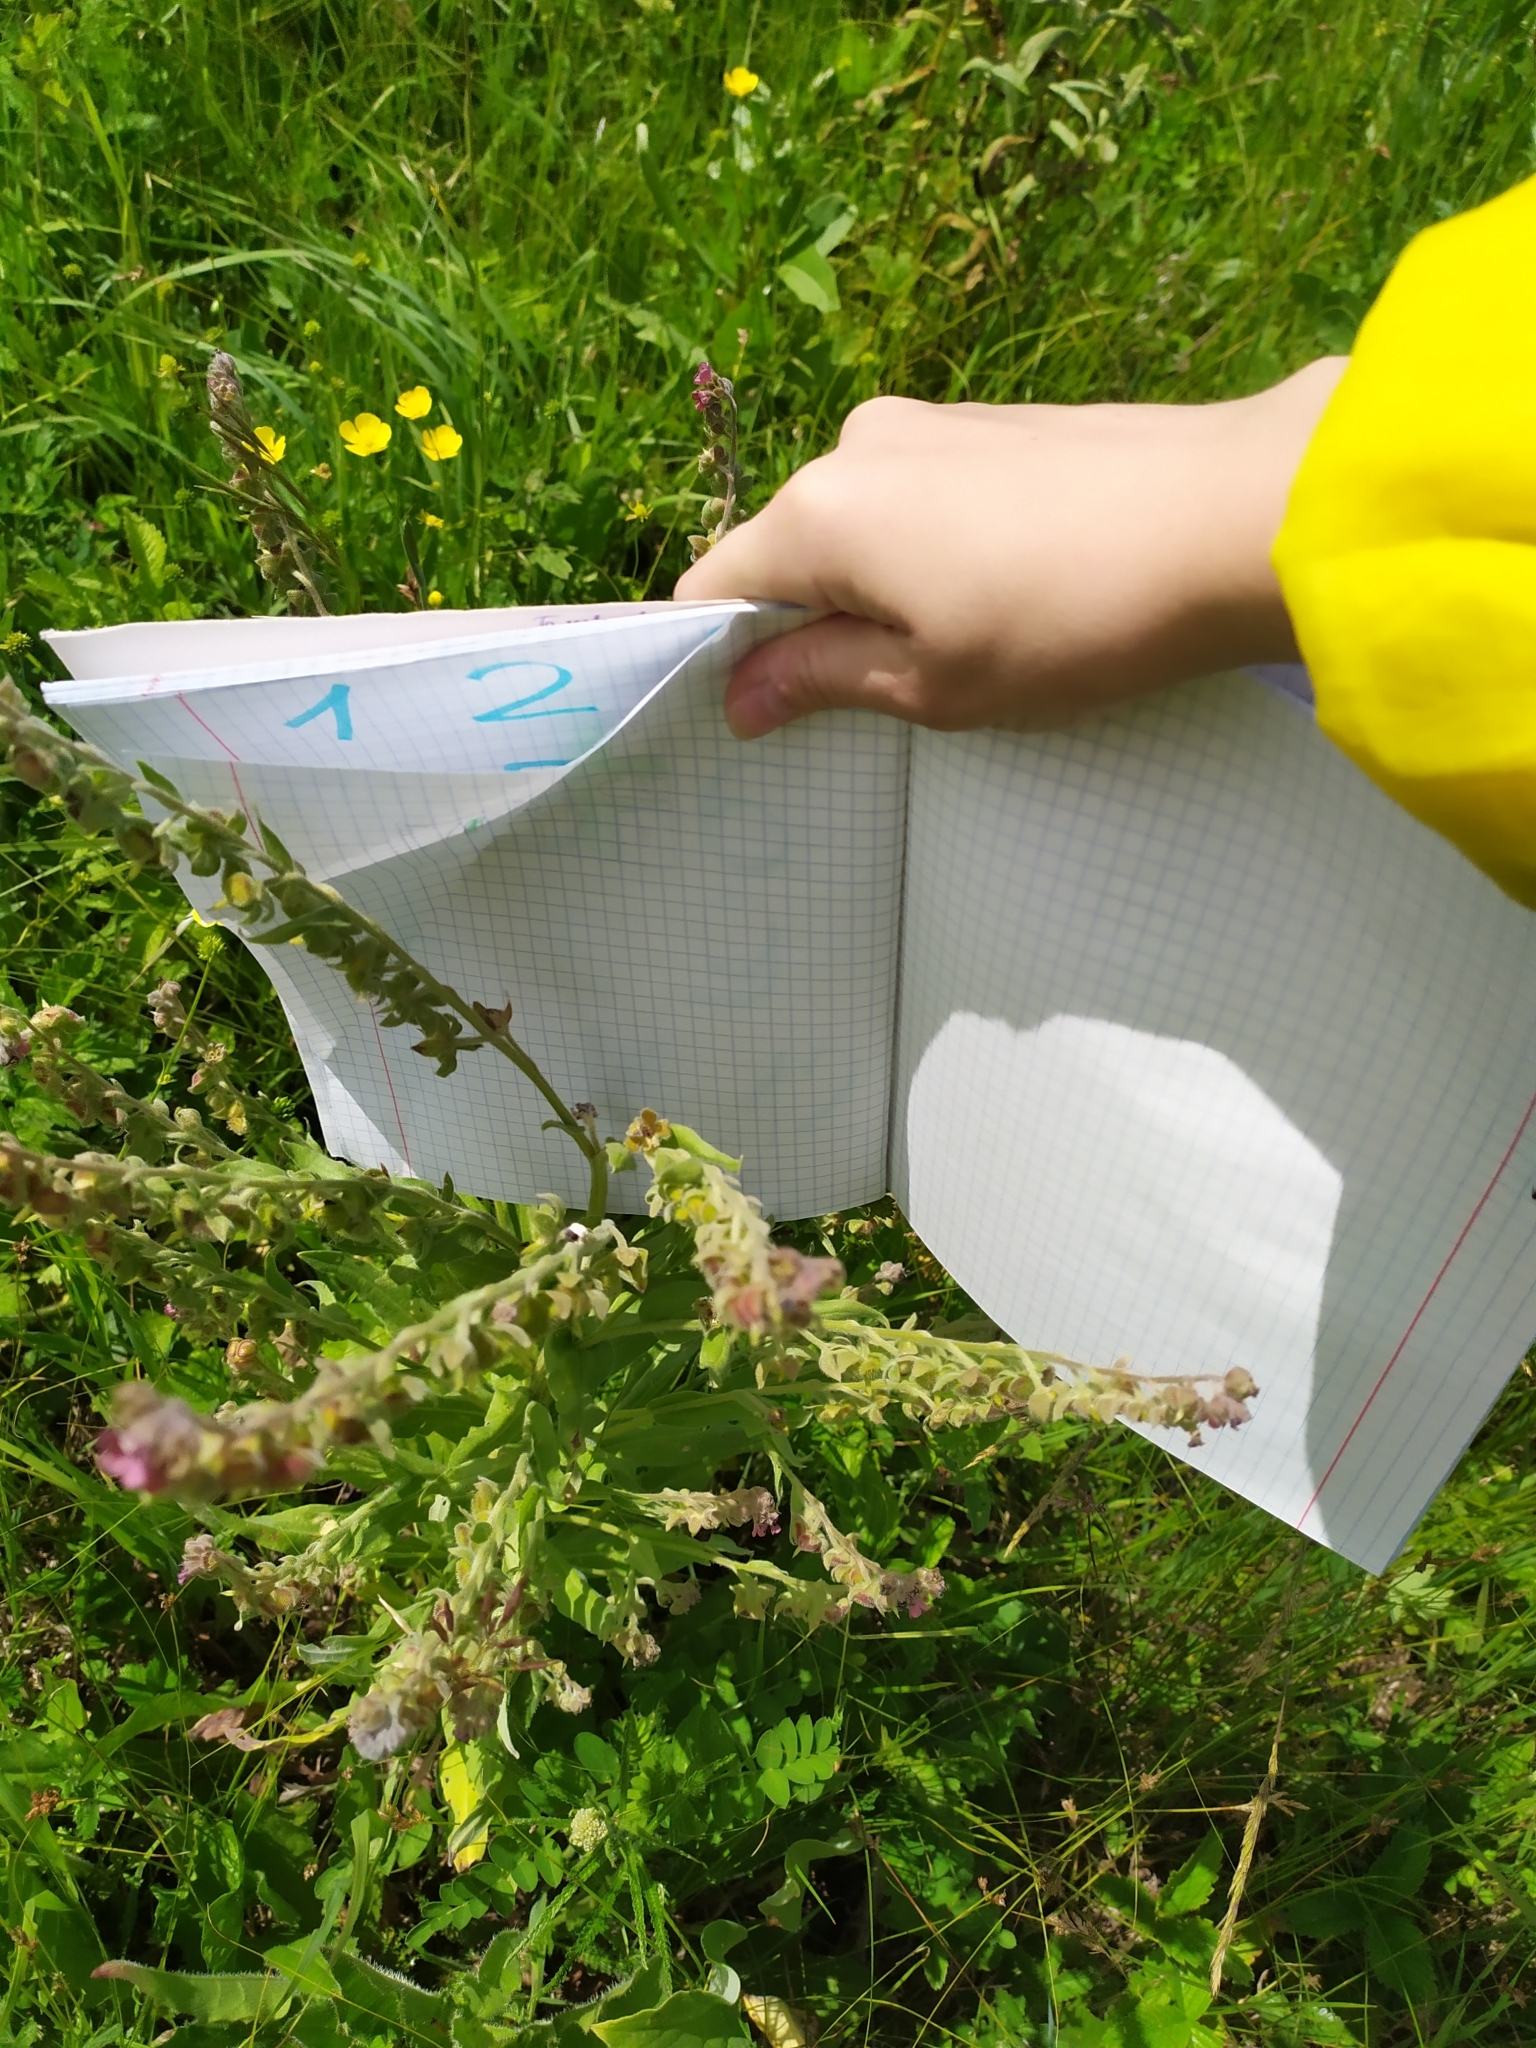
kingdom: Plantae
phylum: Tracheophyta
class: Magnoliopsida
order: Boraginales
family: Boraginaceae
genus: Cynoglossum
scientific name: Cynoglossum officinale
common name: Hound's-tongue
